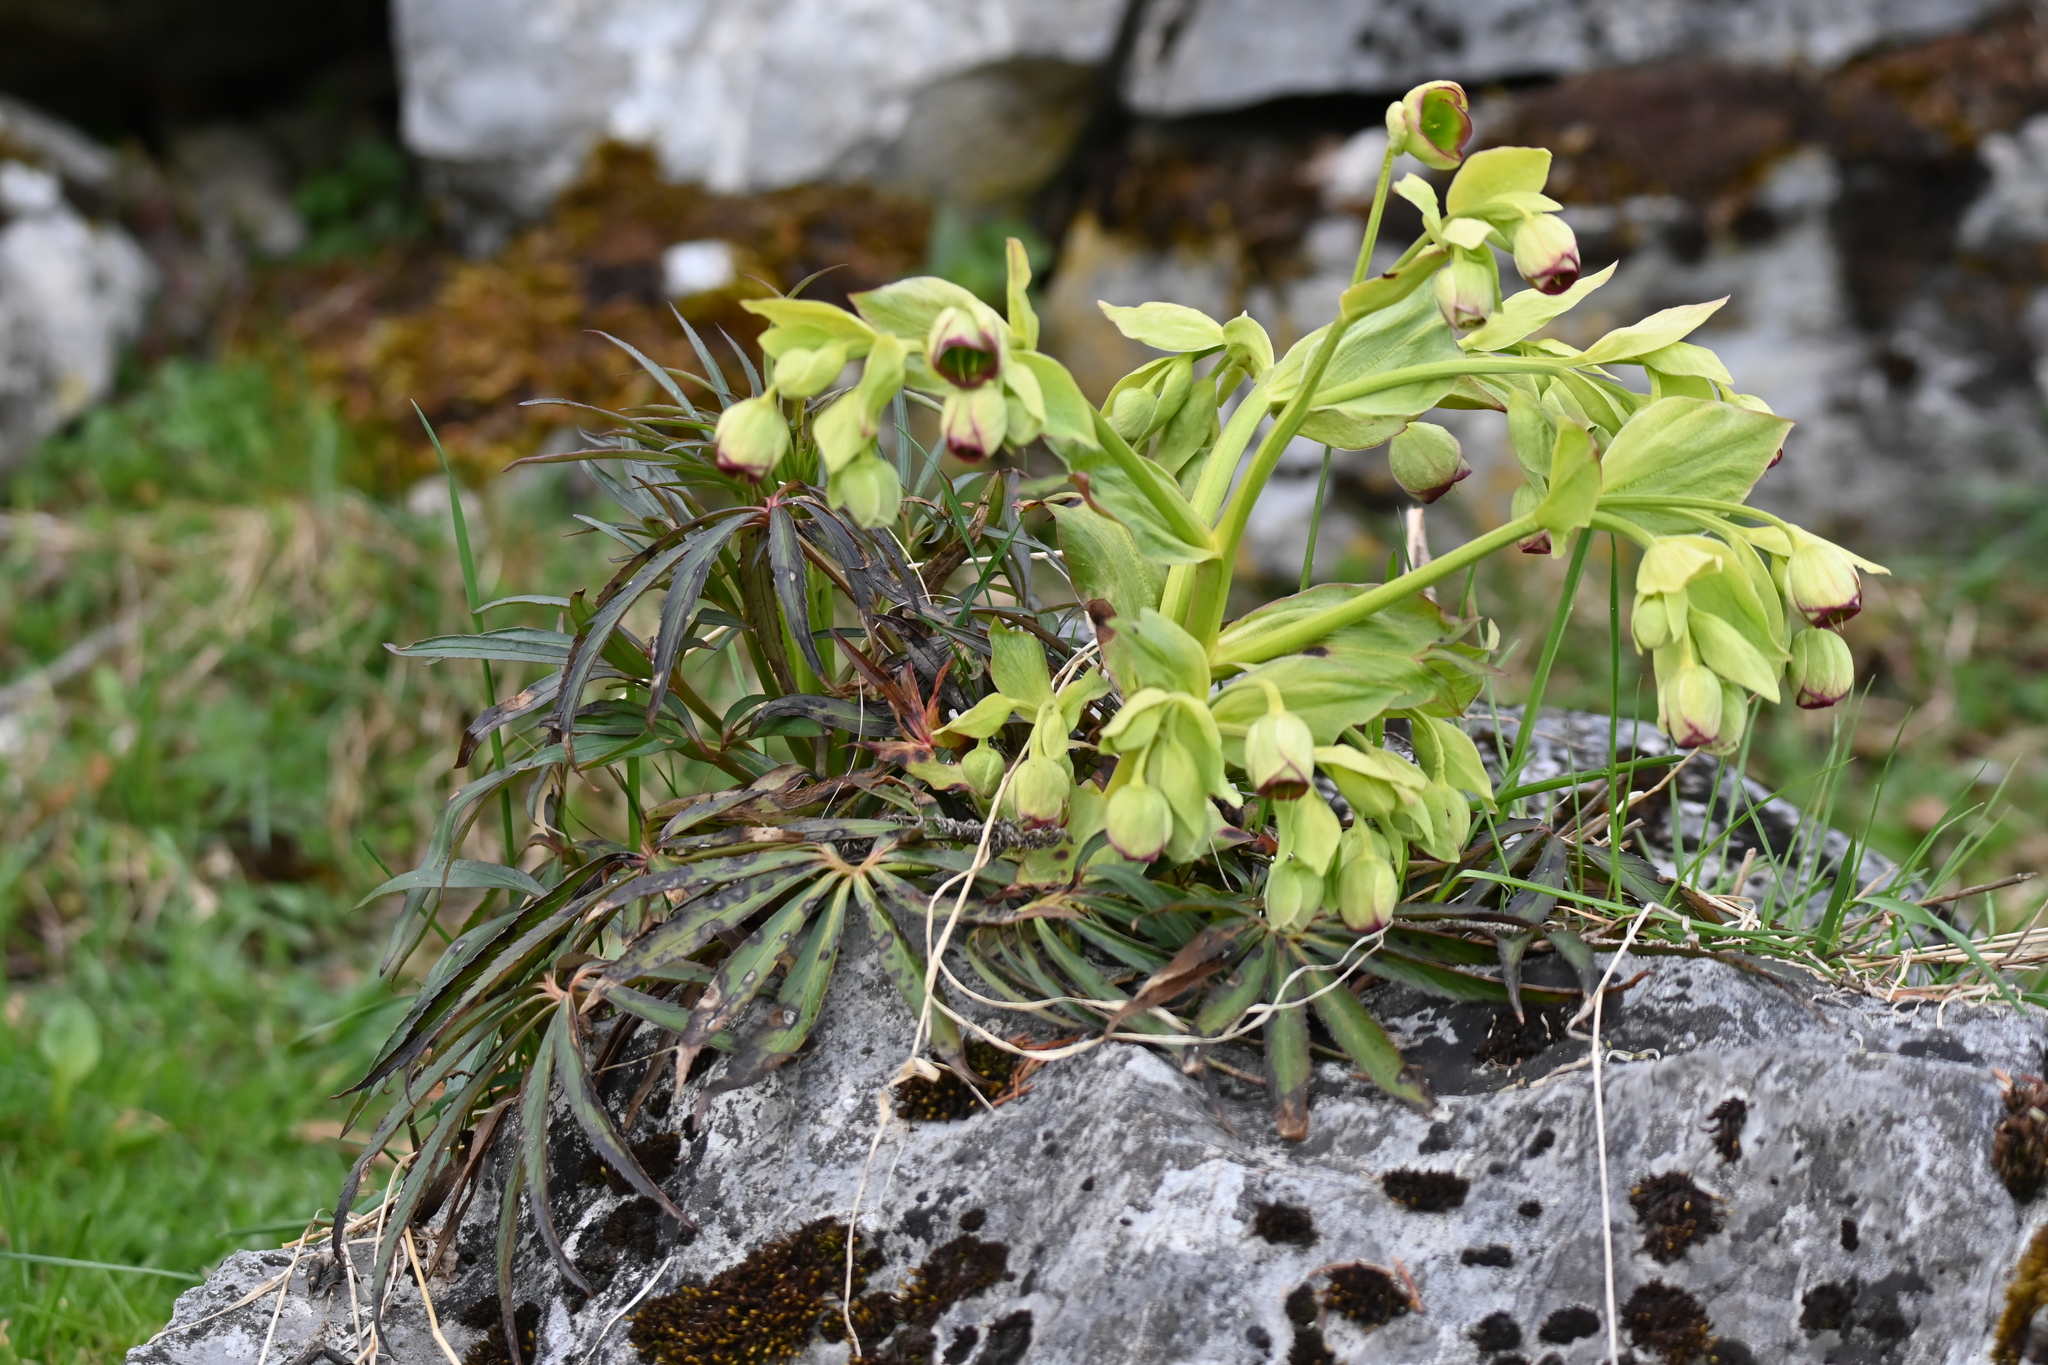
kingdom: Plantae
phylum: Tracheophyta
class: Magnoliopsida
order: Ranunculales
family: Ranunculaceae
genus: Helleborus
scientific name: Helleborus foetidus
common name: Stinking hellebore
